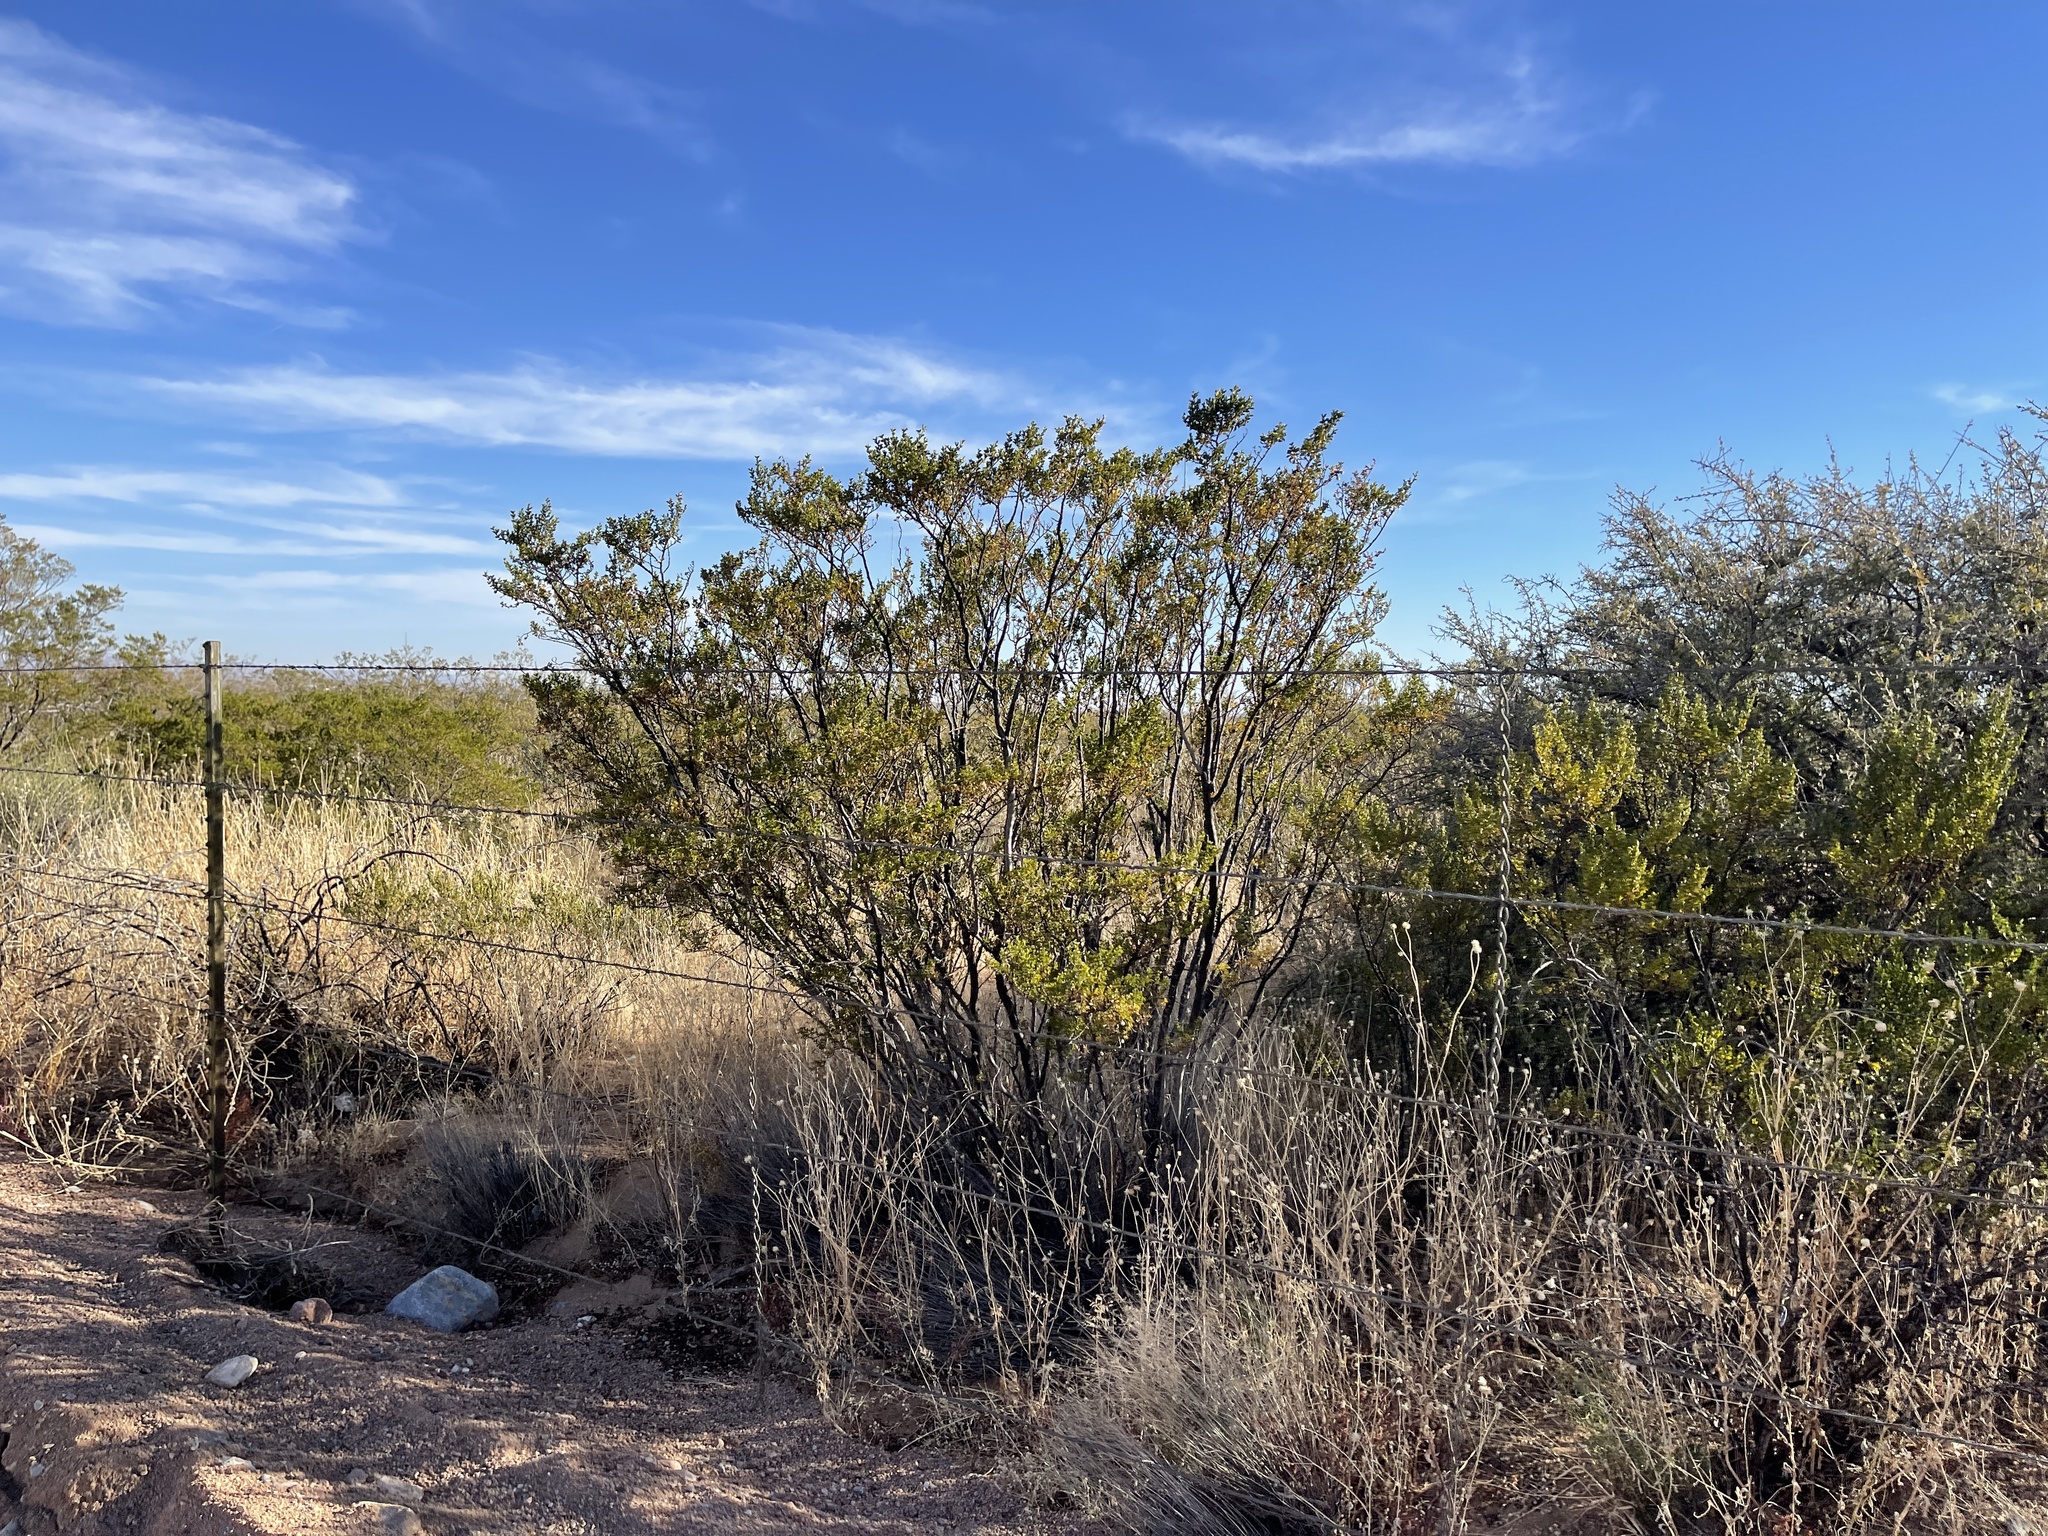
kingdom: Plantae
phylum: Tracheophyta
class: Magnoliopsida
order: Zygophyllales
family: Zygophyllaceae
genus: Larrea
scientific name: Larrea tridentata
